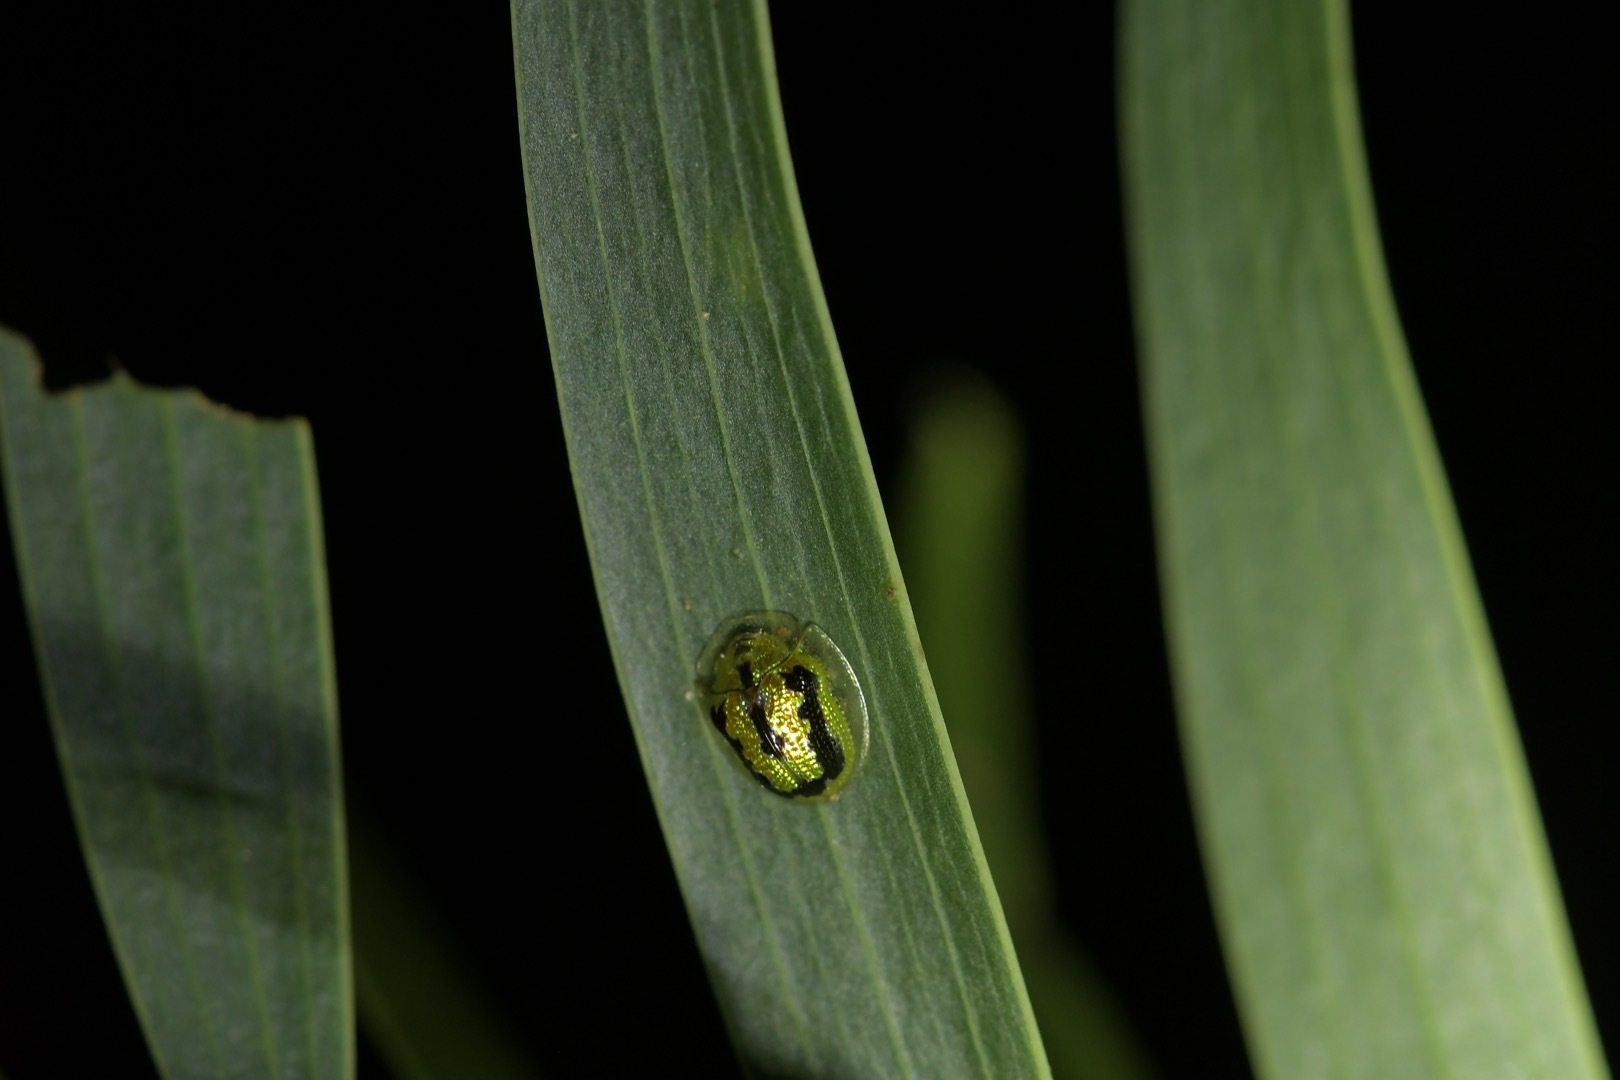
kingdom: Animalia
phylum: Arthropoda
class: Insecta
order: Coleoptera
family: Chrysomelidae
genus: Cassida
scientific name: Cassida circumdata
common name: Tortoise beetle
